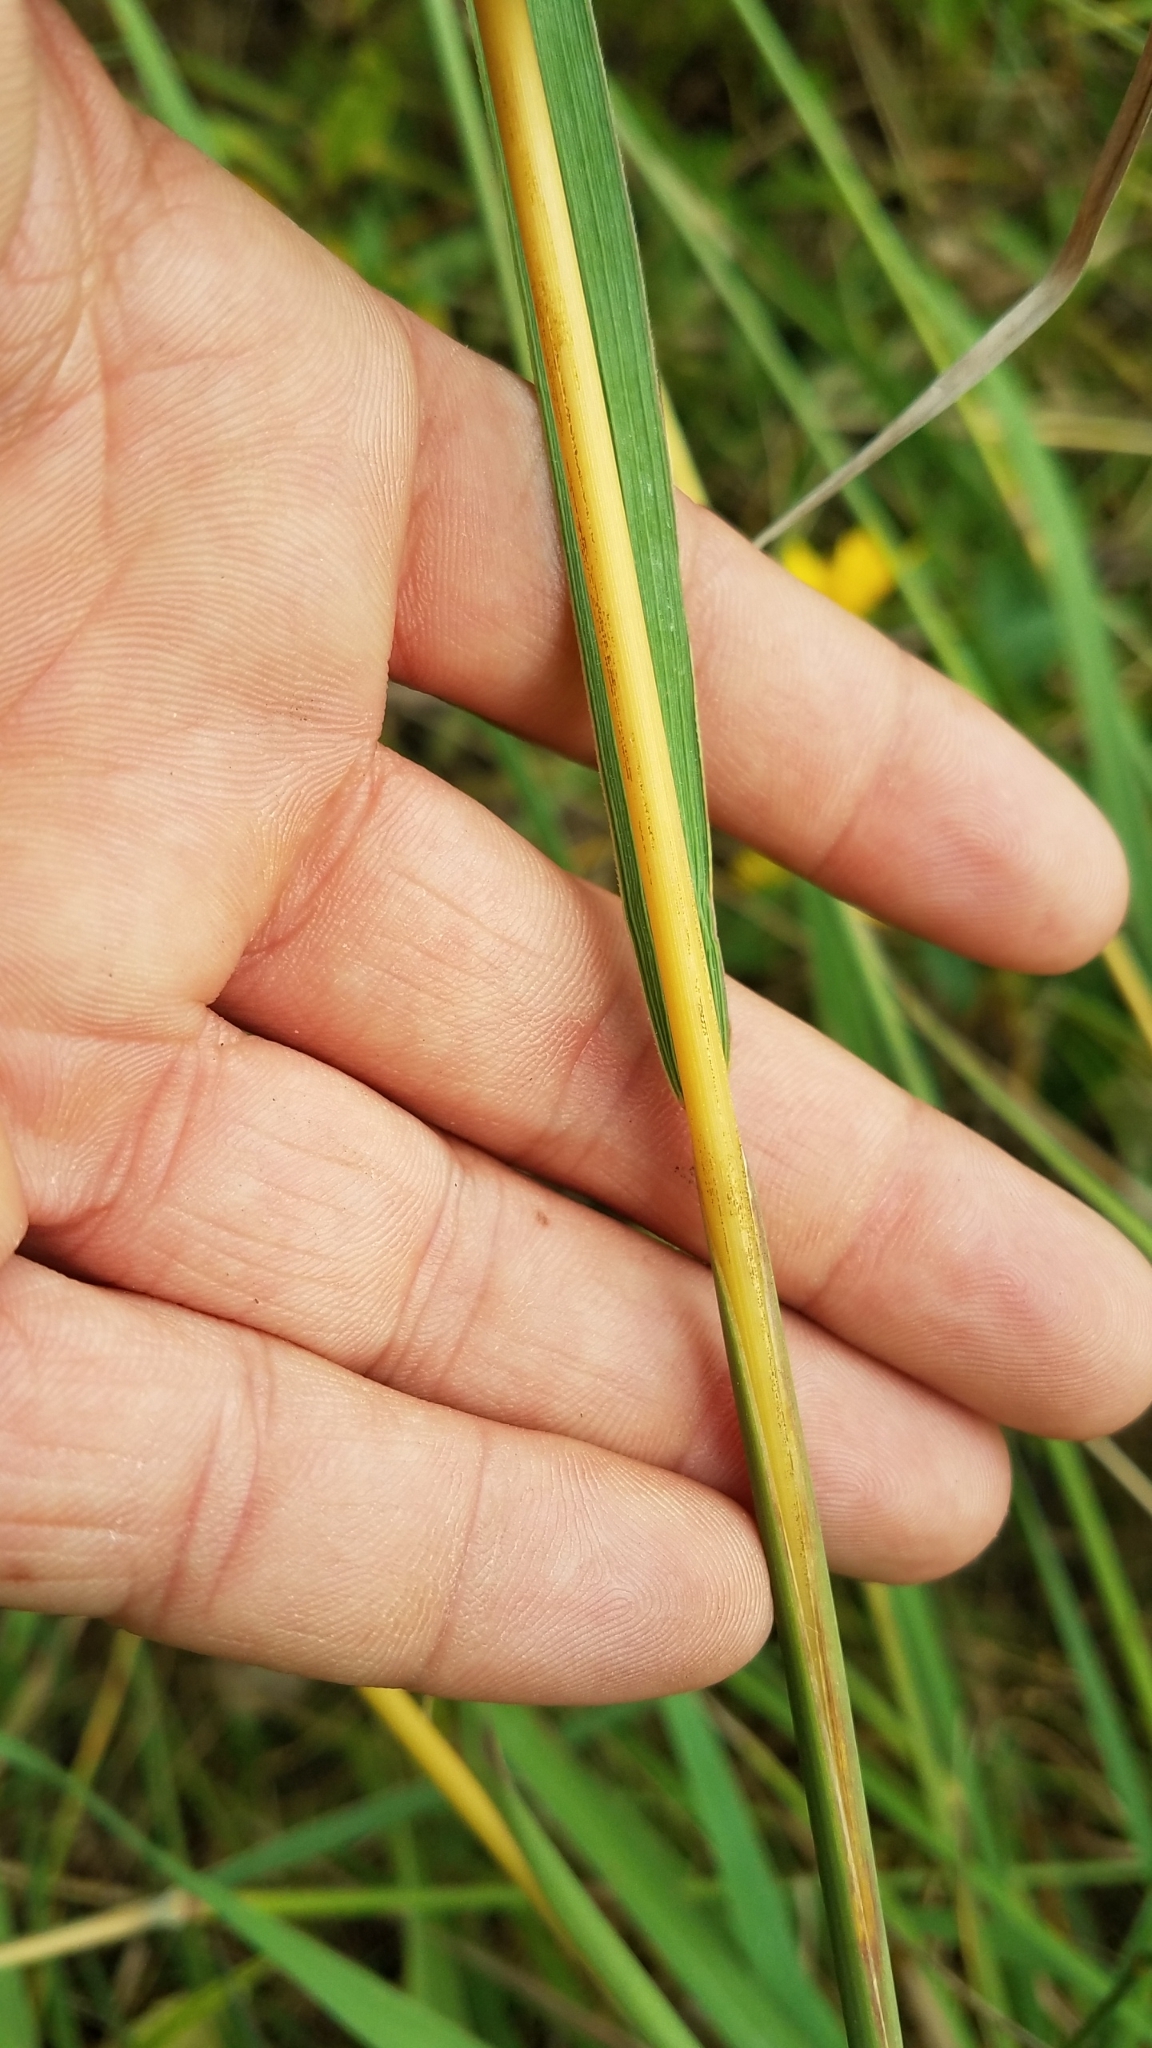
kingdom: Plantae
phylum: Tracheophyta
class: Liliopsida
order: Poales
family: Poaceae
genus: Sorghastrum
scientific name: Sorghastrum nutans
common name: Indian grass
